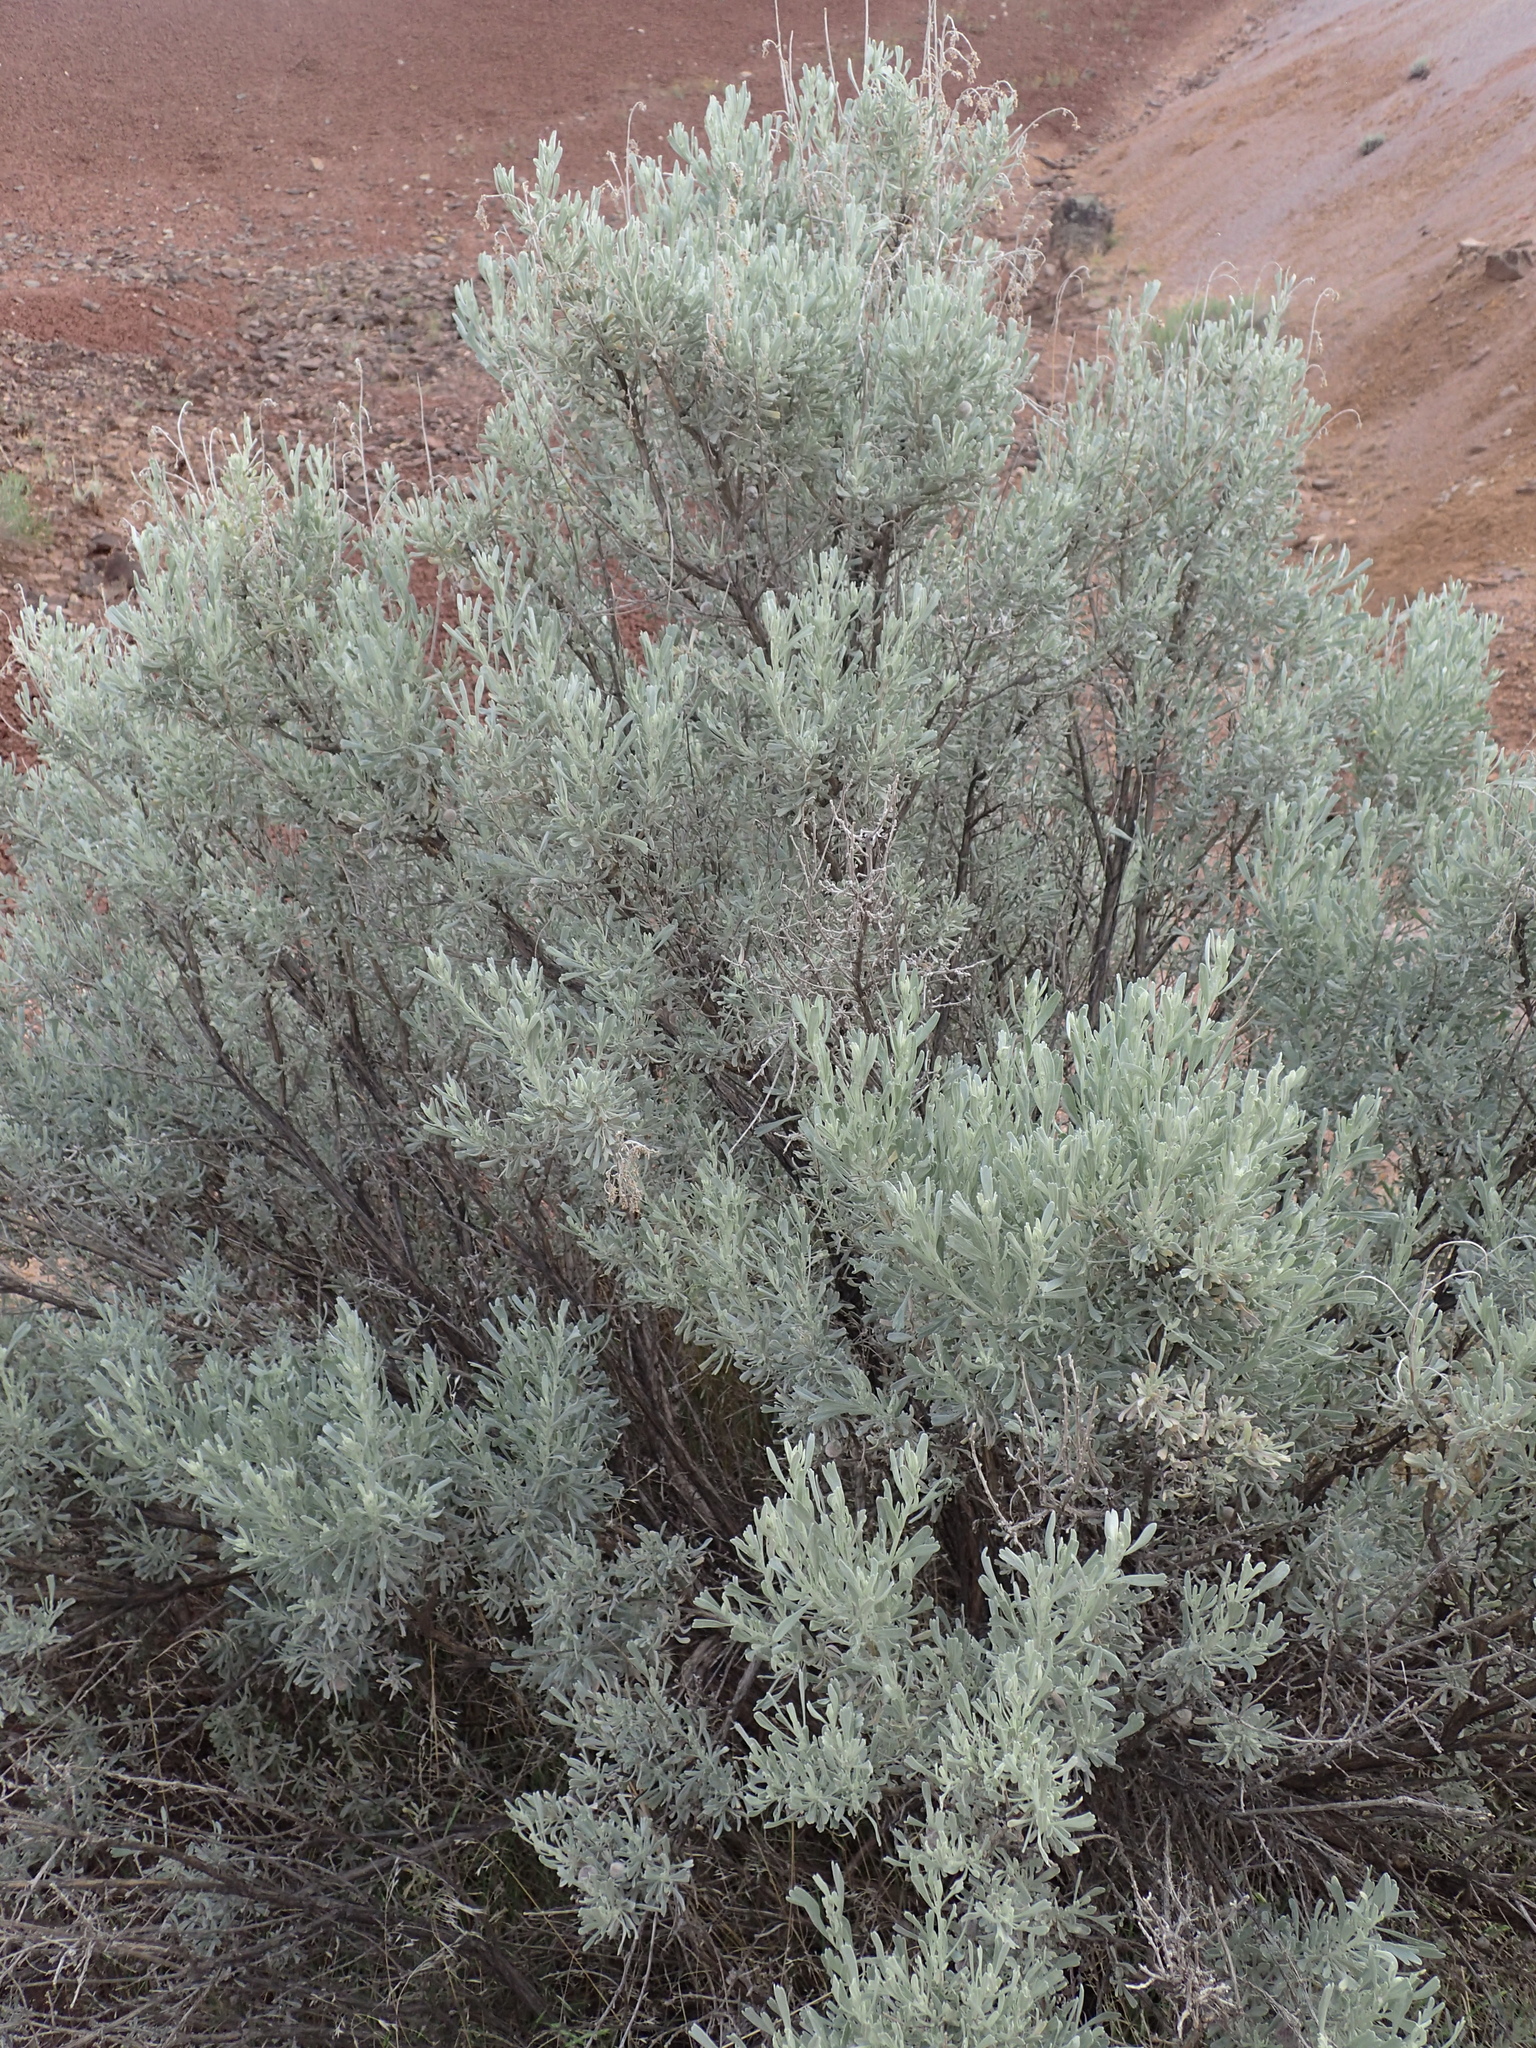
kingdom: Plantae
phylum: Tracheophyta
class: Magnoliopsida
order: Asterales
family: Asteraceae
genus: Artemisia
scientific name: Artemisia tridentata
